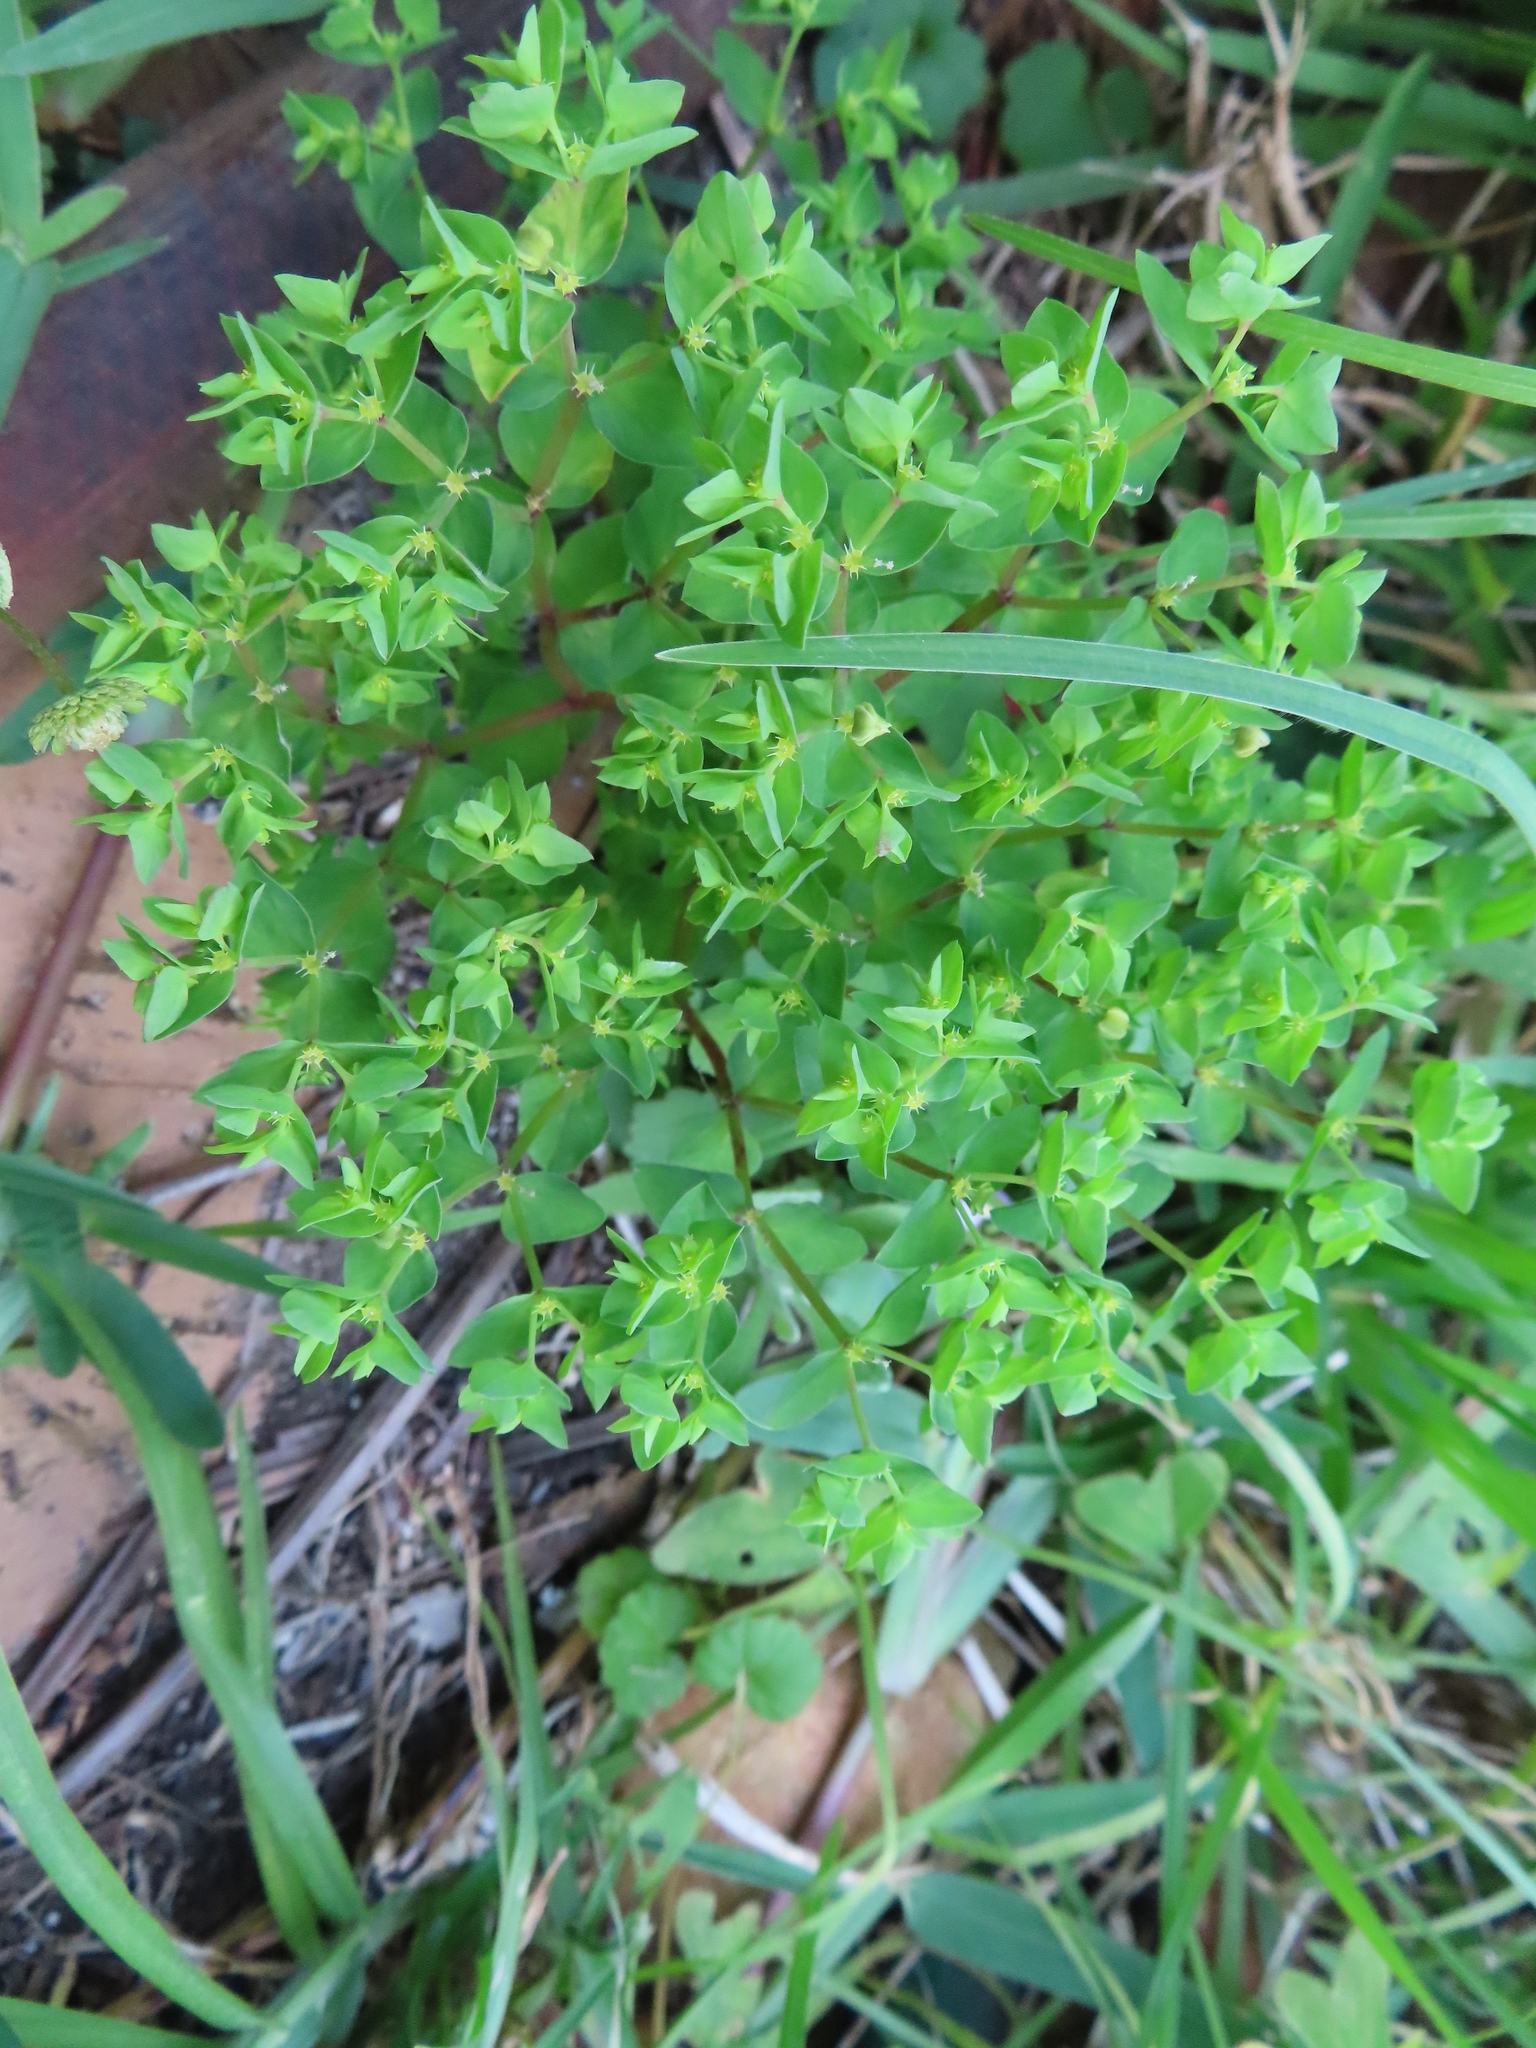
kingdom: Plantae
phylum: Tracheophyta
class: Magnoliopsida
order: Malpighiales
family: Euphorbiaceae
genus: Euphorbia
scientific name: Euphorbia peplus
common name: Petty spurge
